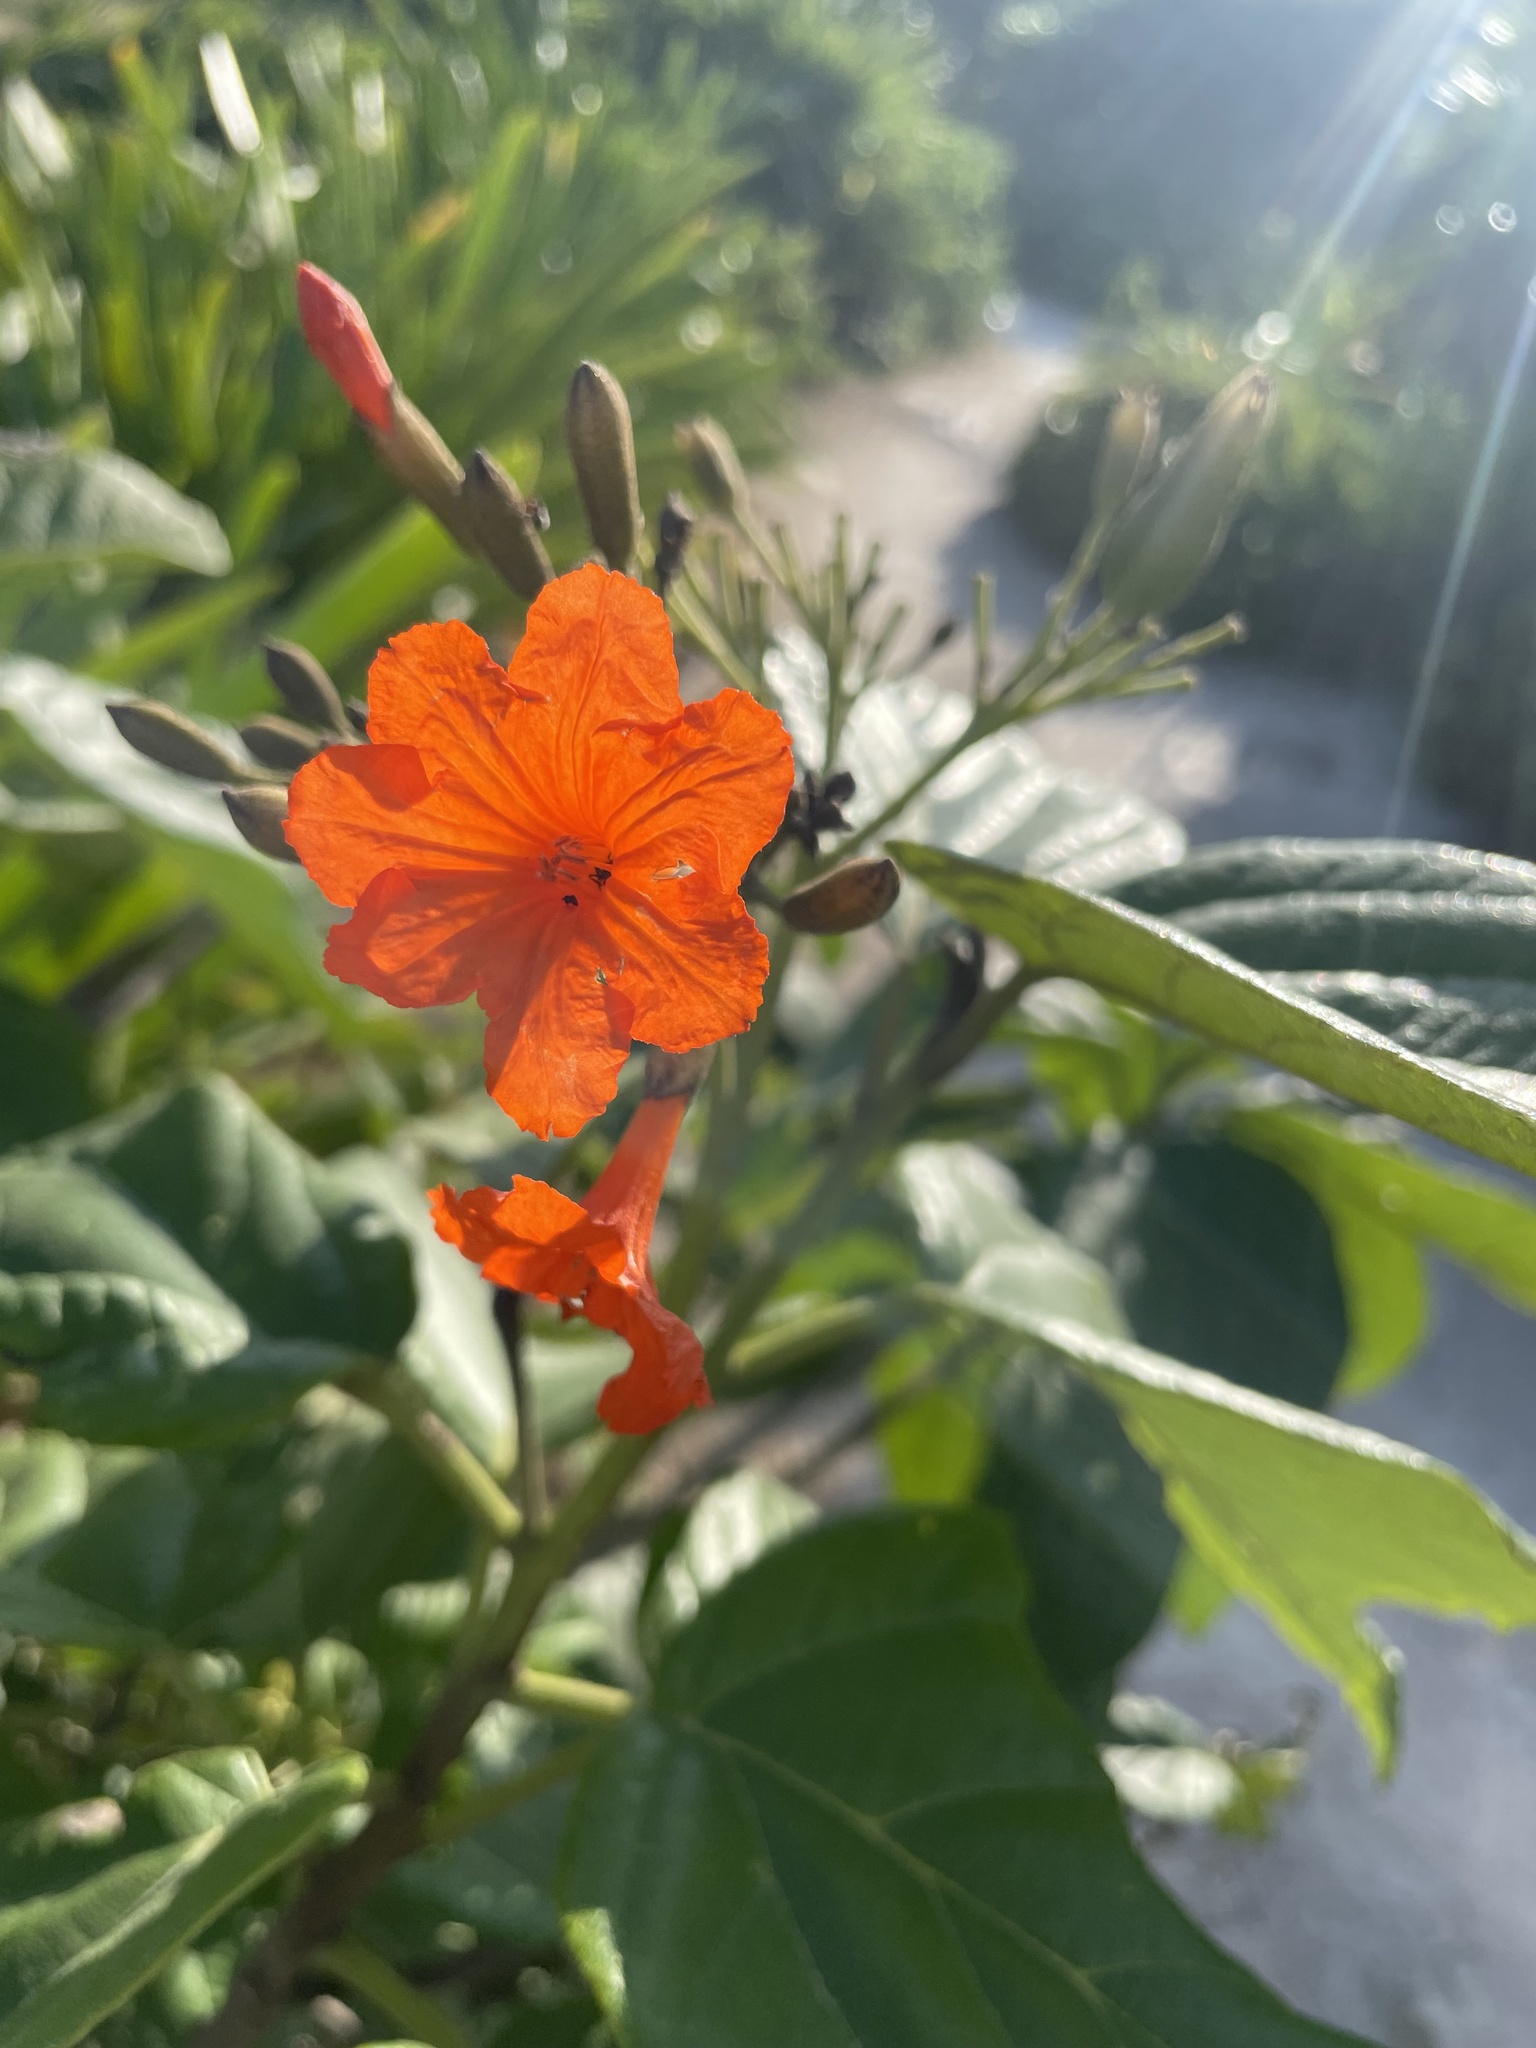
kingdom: Plantae
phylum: Tracheophyta
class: Magnoliopsida
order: Boraginales
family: Cordiaceae
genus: Cordia
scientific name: Cordia sebestena
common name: Largeleaf geigertree
